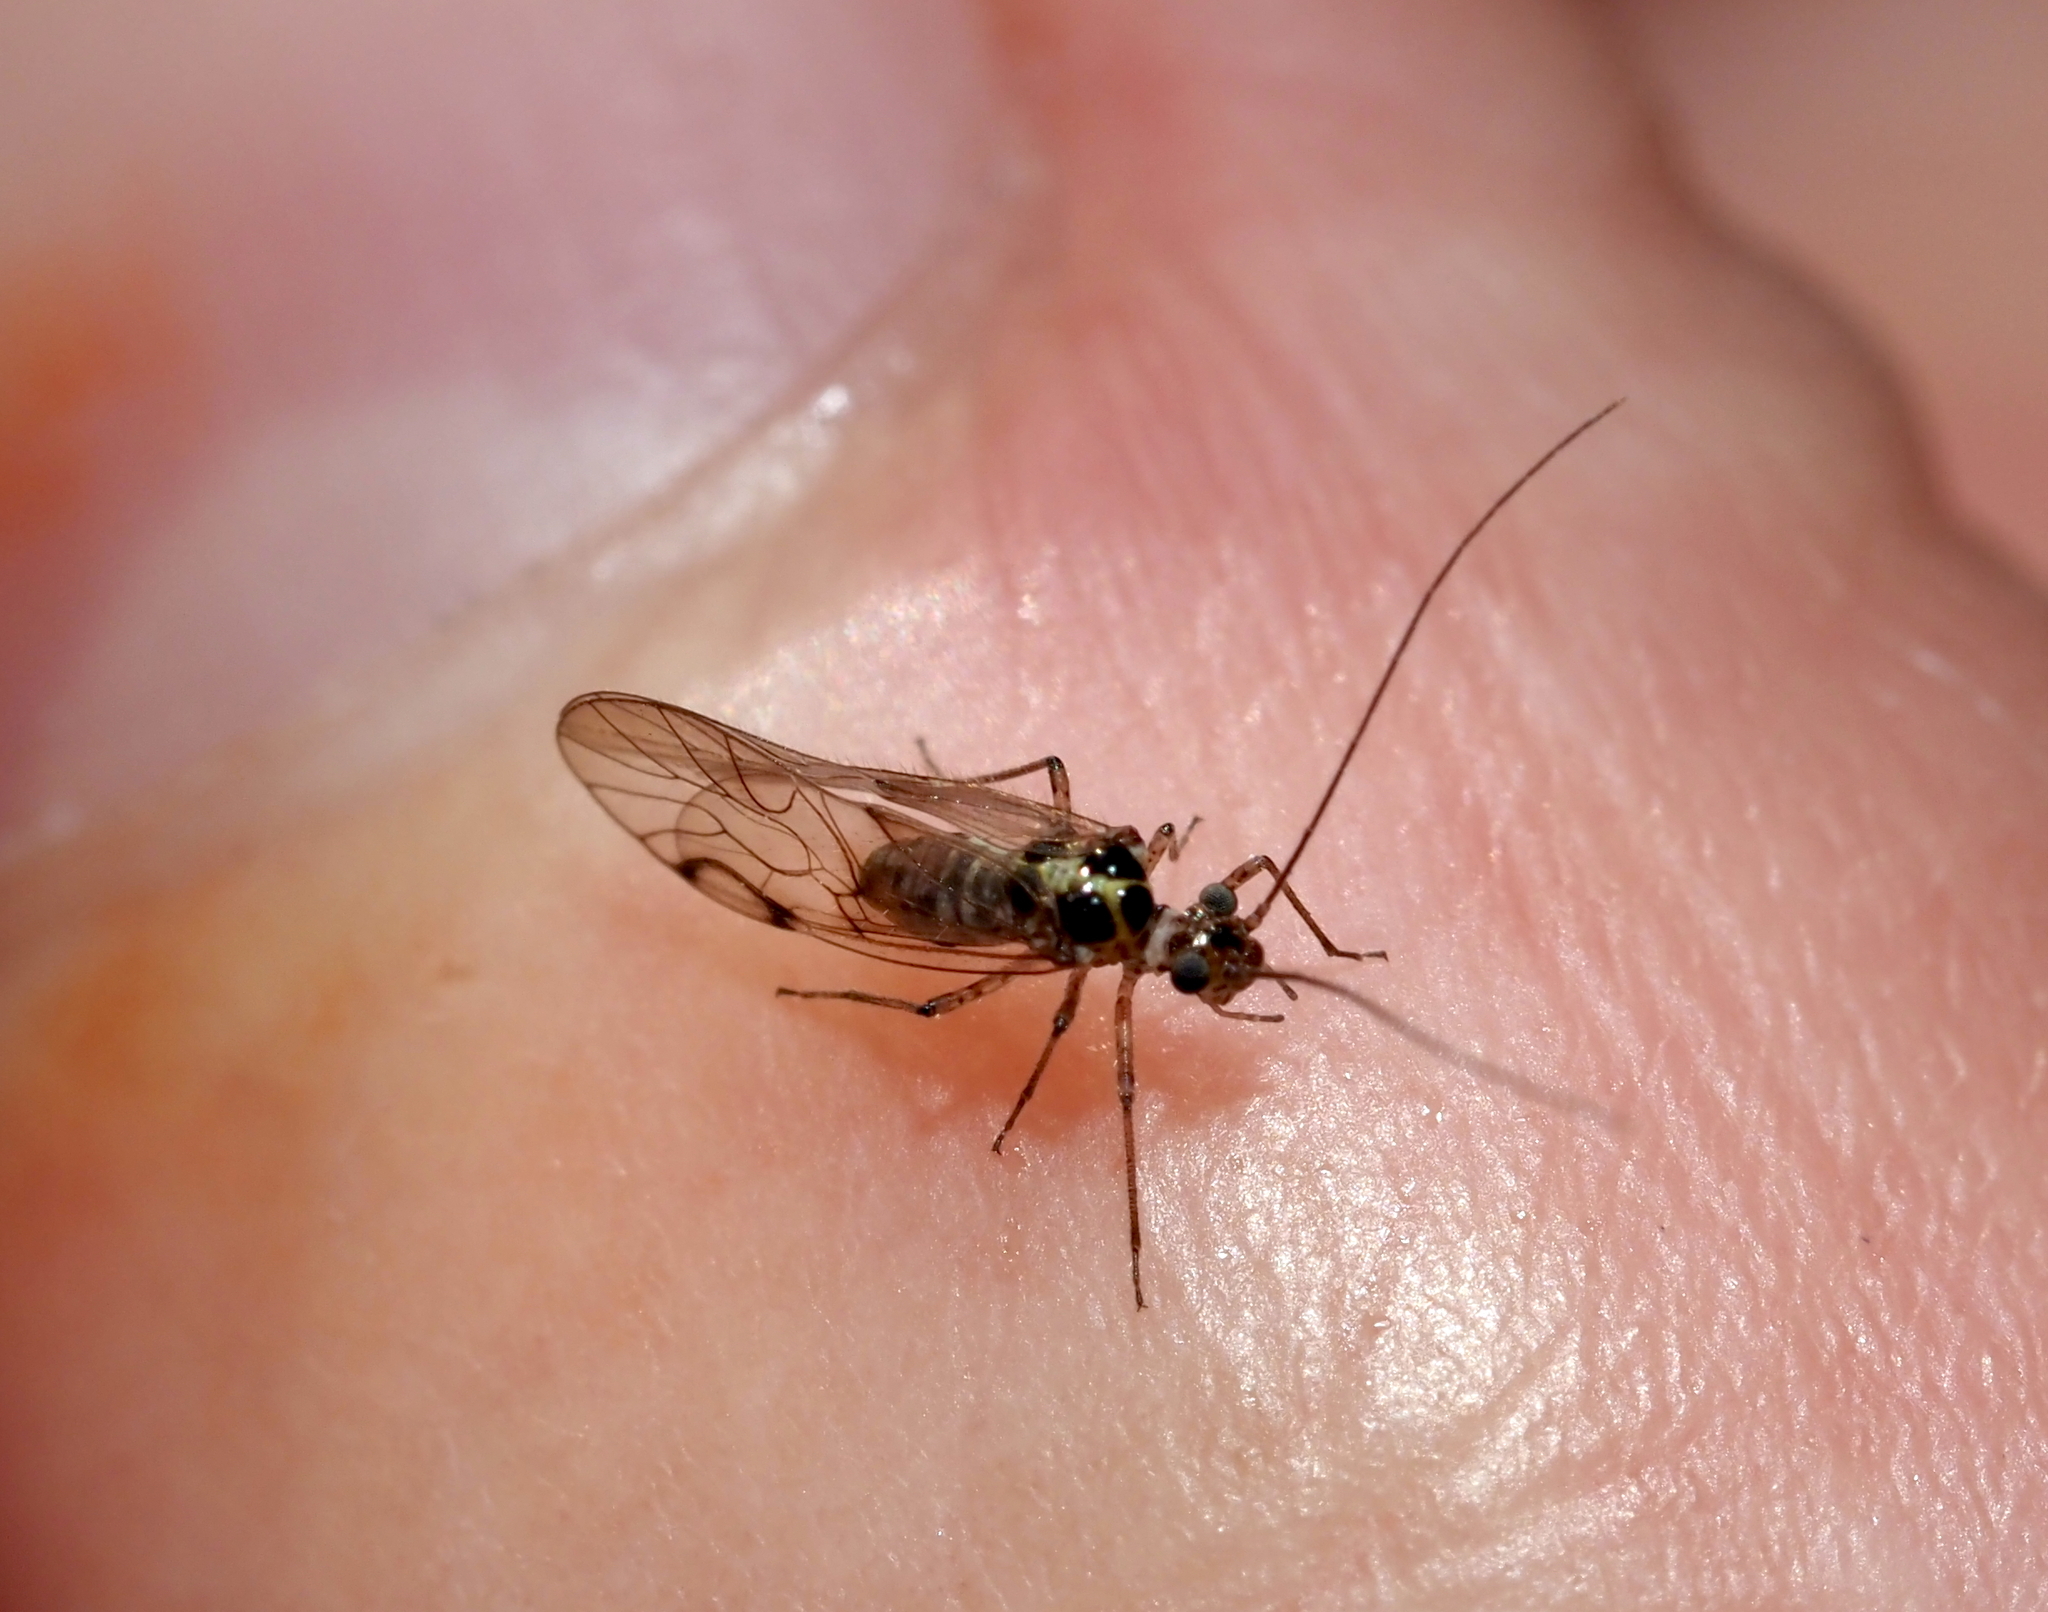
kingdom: Animalia
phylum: Arthropoda
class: Insecta
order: Psocodea
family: Dasydemellidae
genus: Teliapsocus
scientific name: Teliapsocus conterminus
